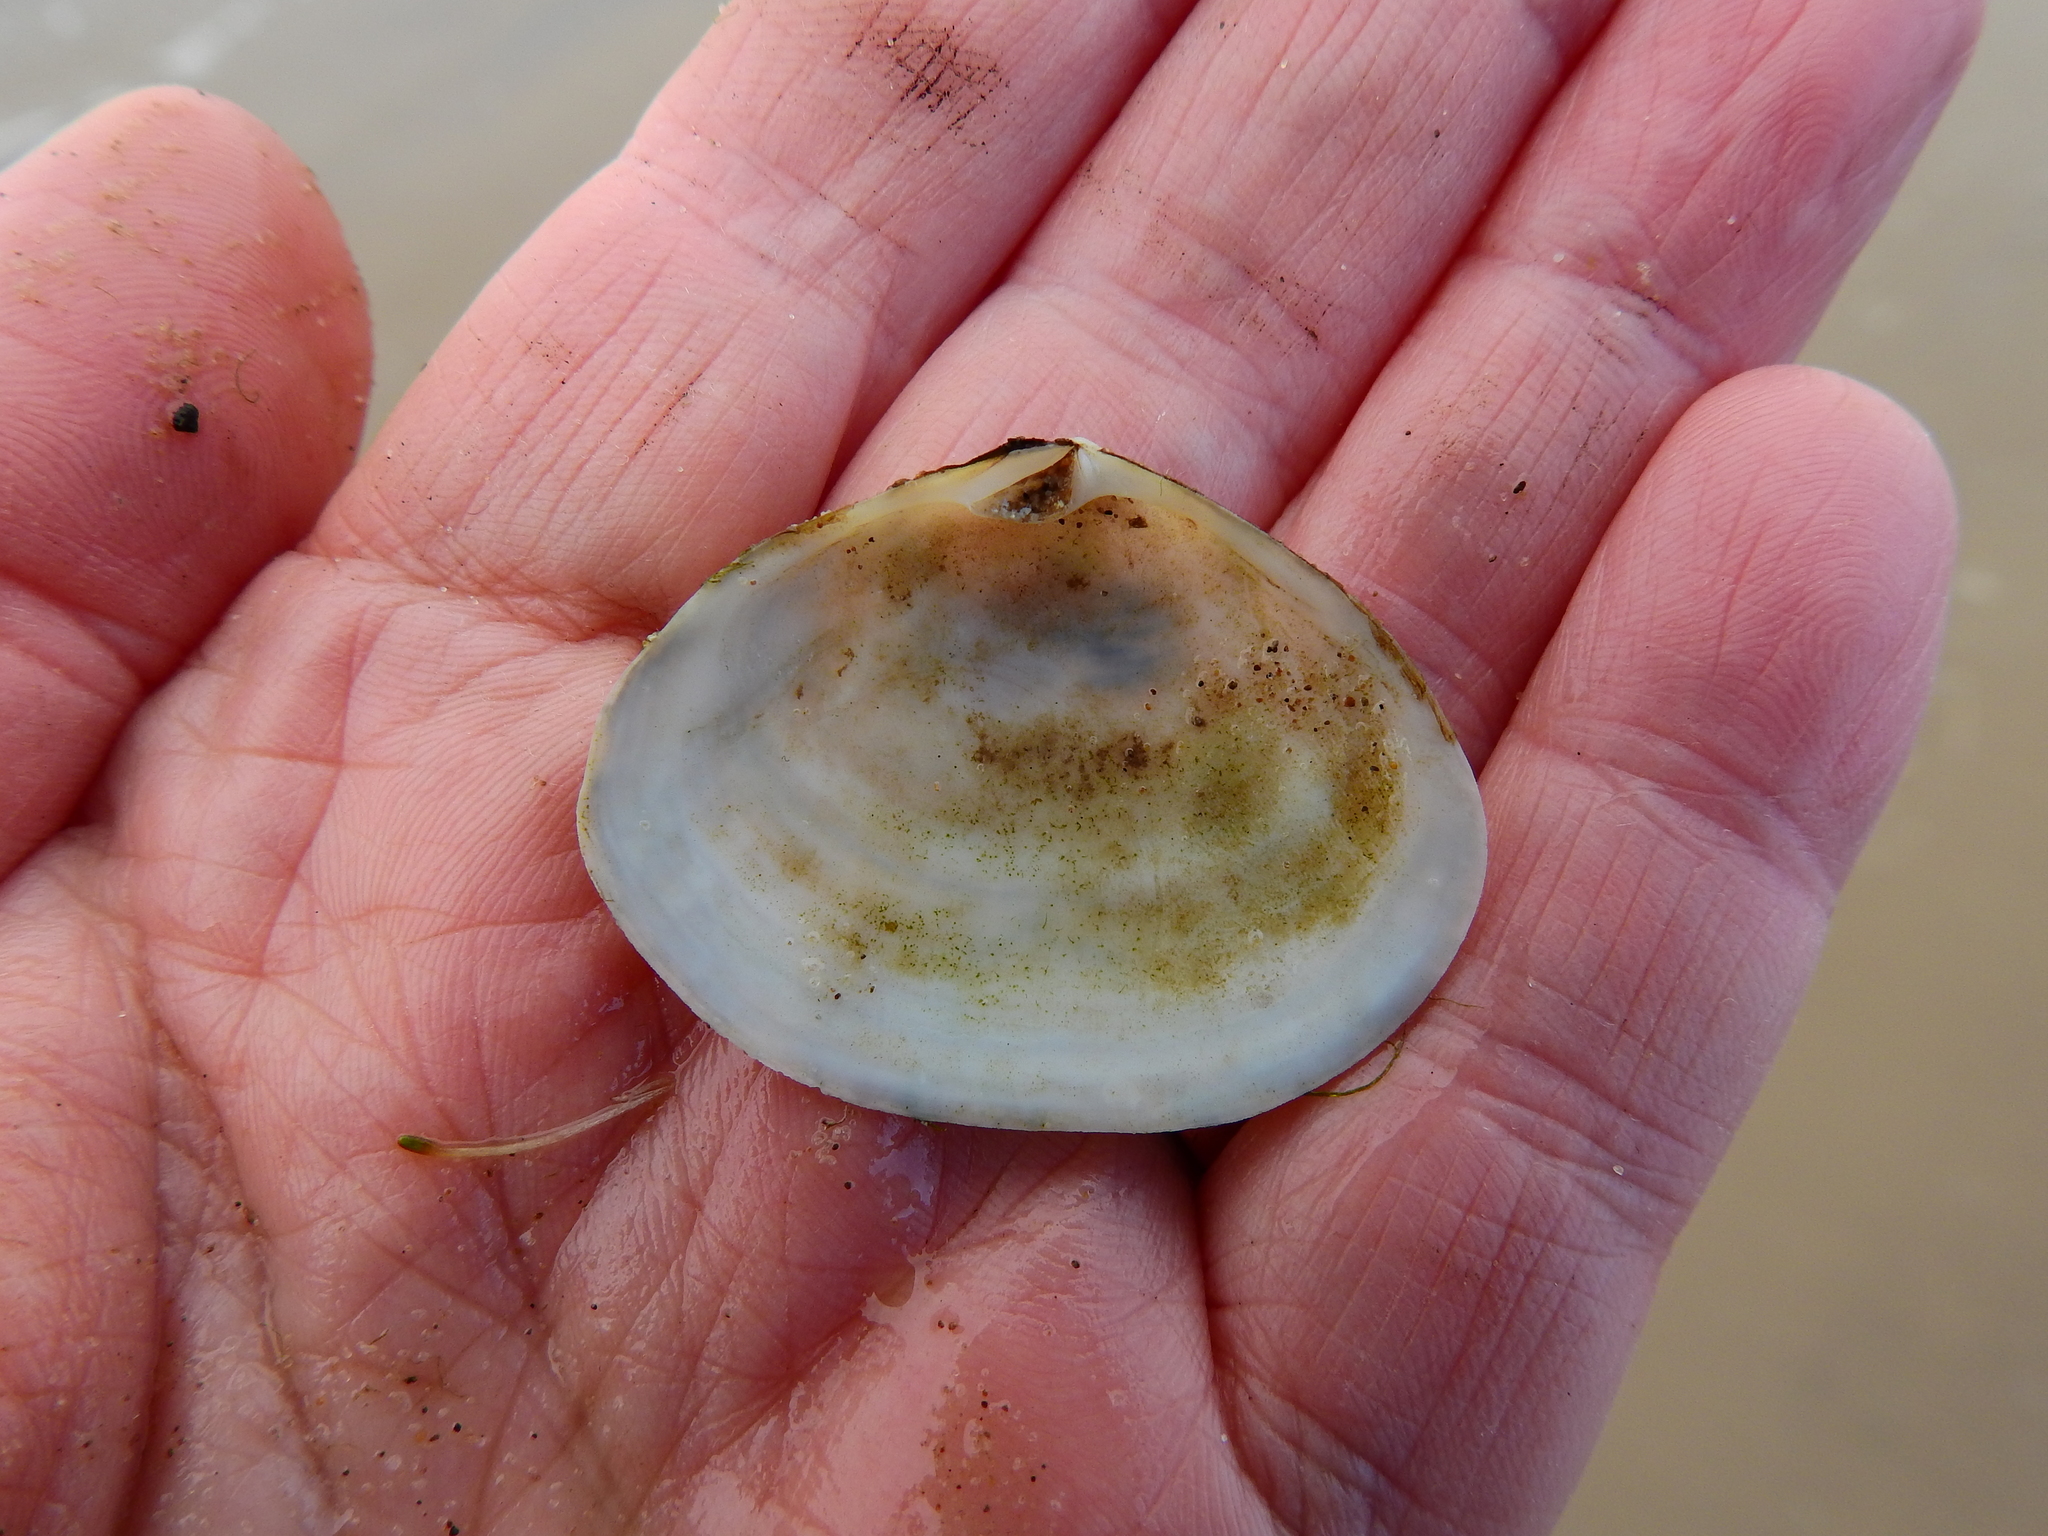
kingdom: Animalia
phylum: Mollusca
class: Bivalvia
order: Cardiida
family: Semelidae
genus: Scrobicularia
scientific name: Scrobicularia plana
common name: Peppery furrow shell
